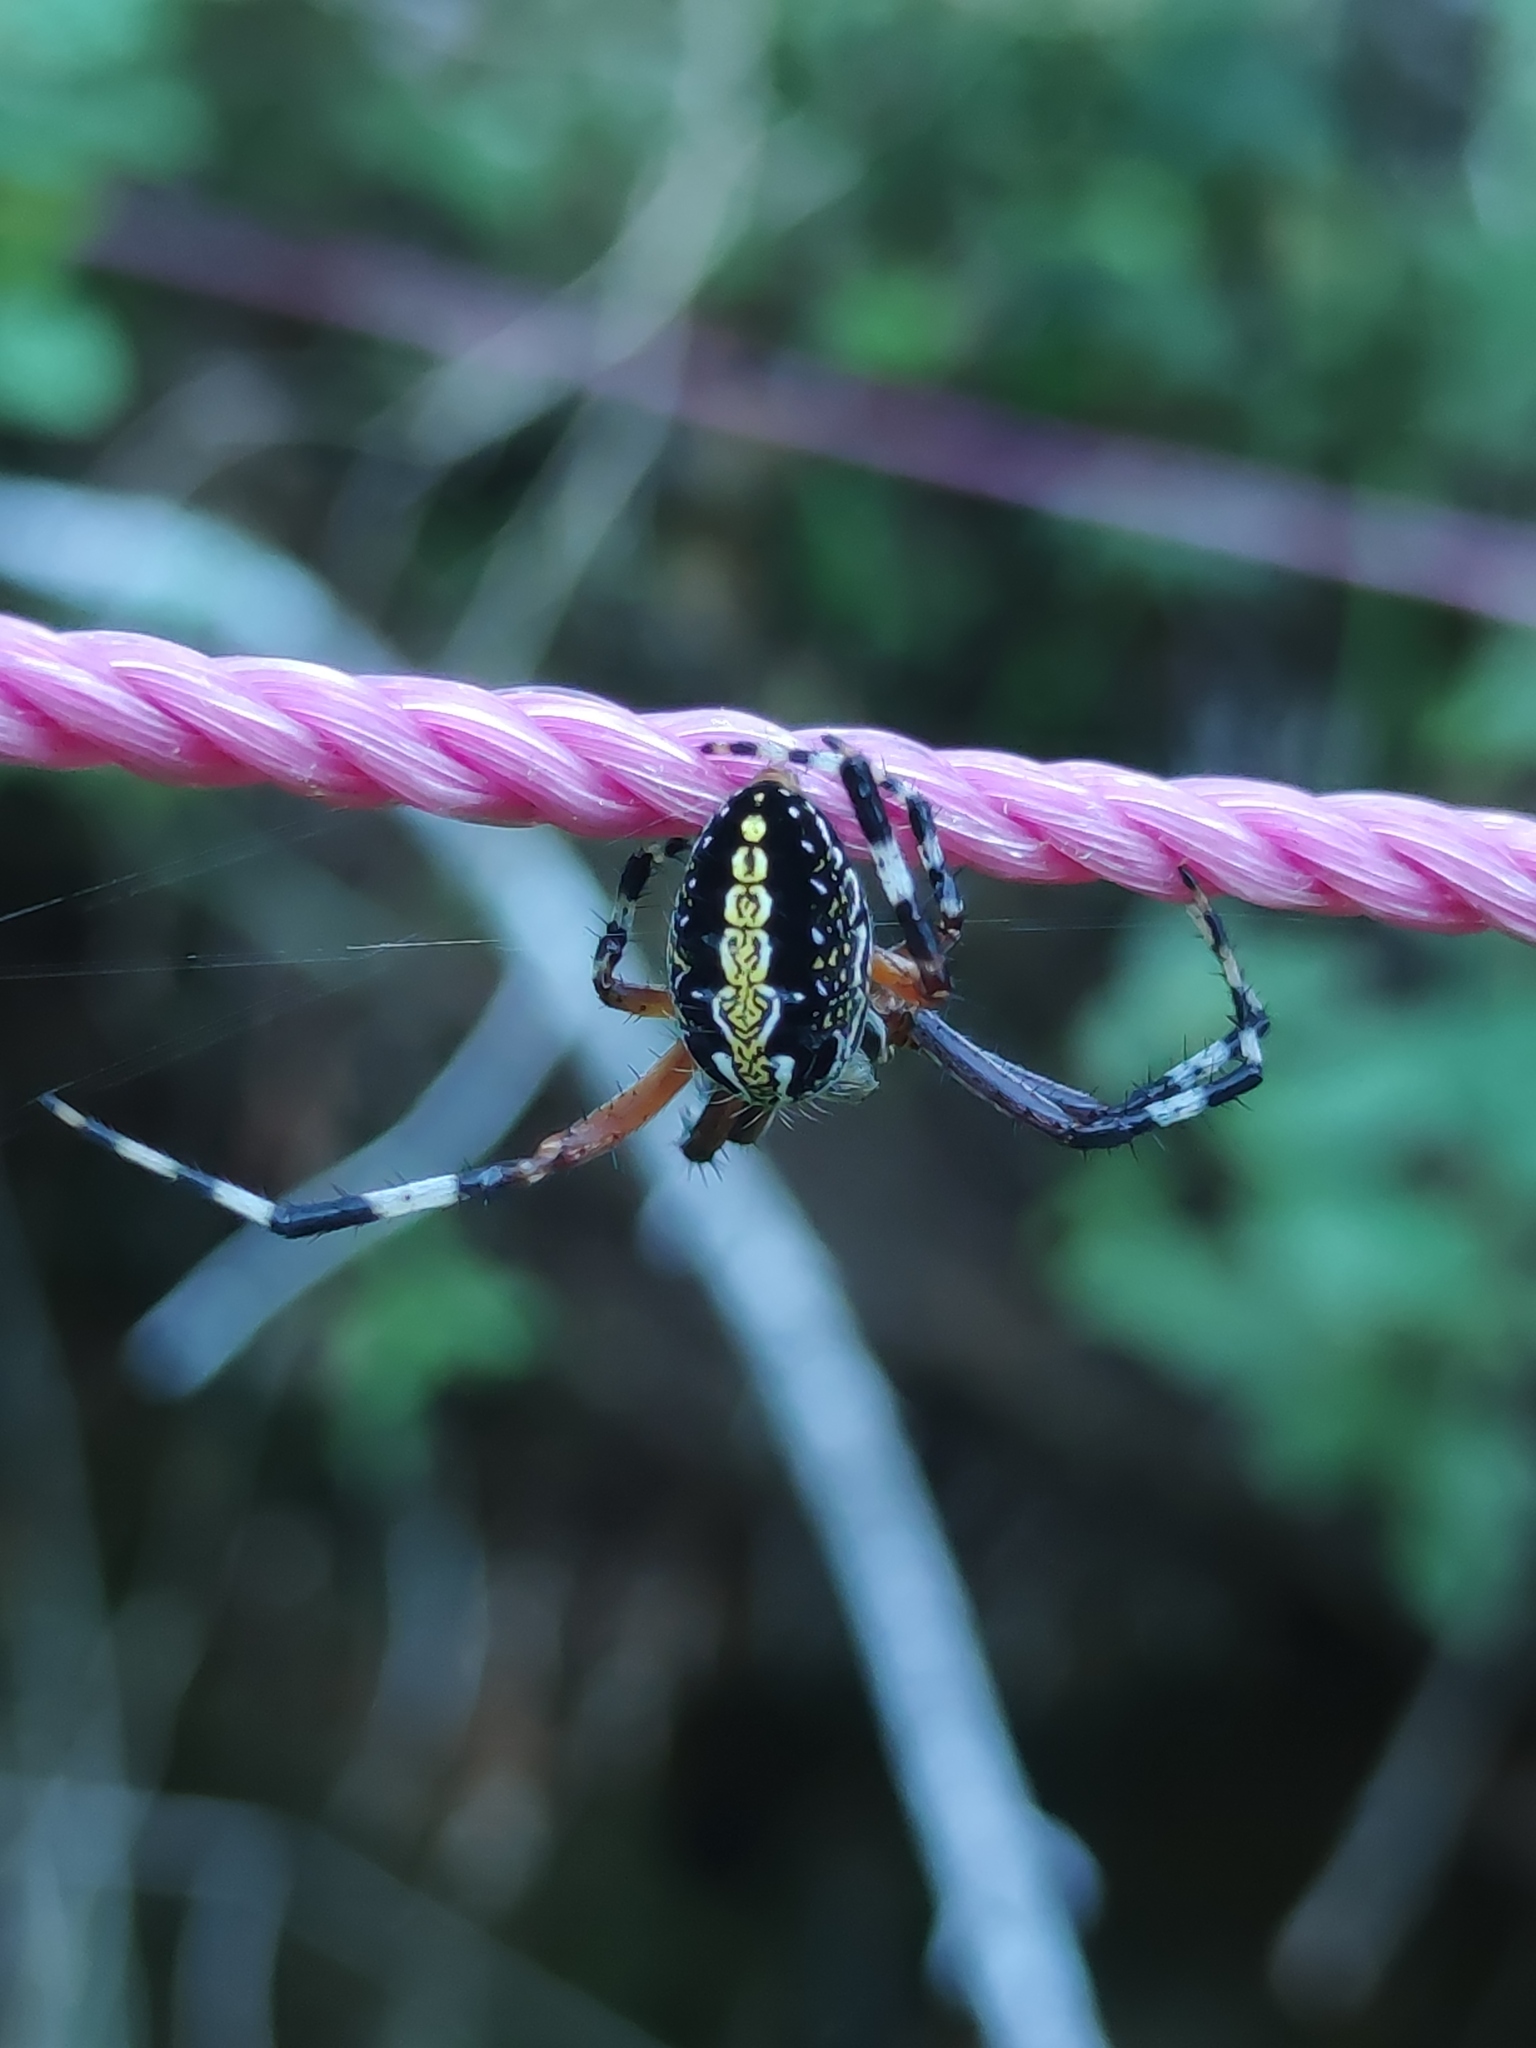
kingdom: Animalia
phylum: Arthropoda
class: Arachnida
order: Araneae
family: Araneidae
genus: Neoscona
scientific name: Neoscona oaxacensis
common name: Orb weavers
